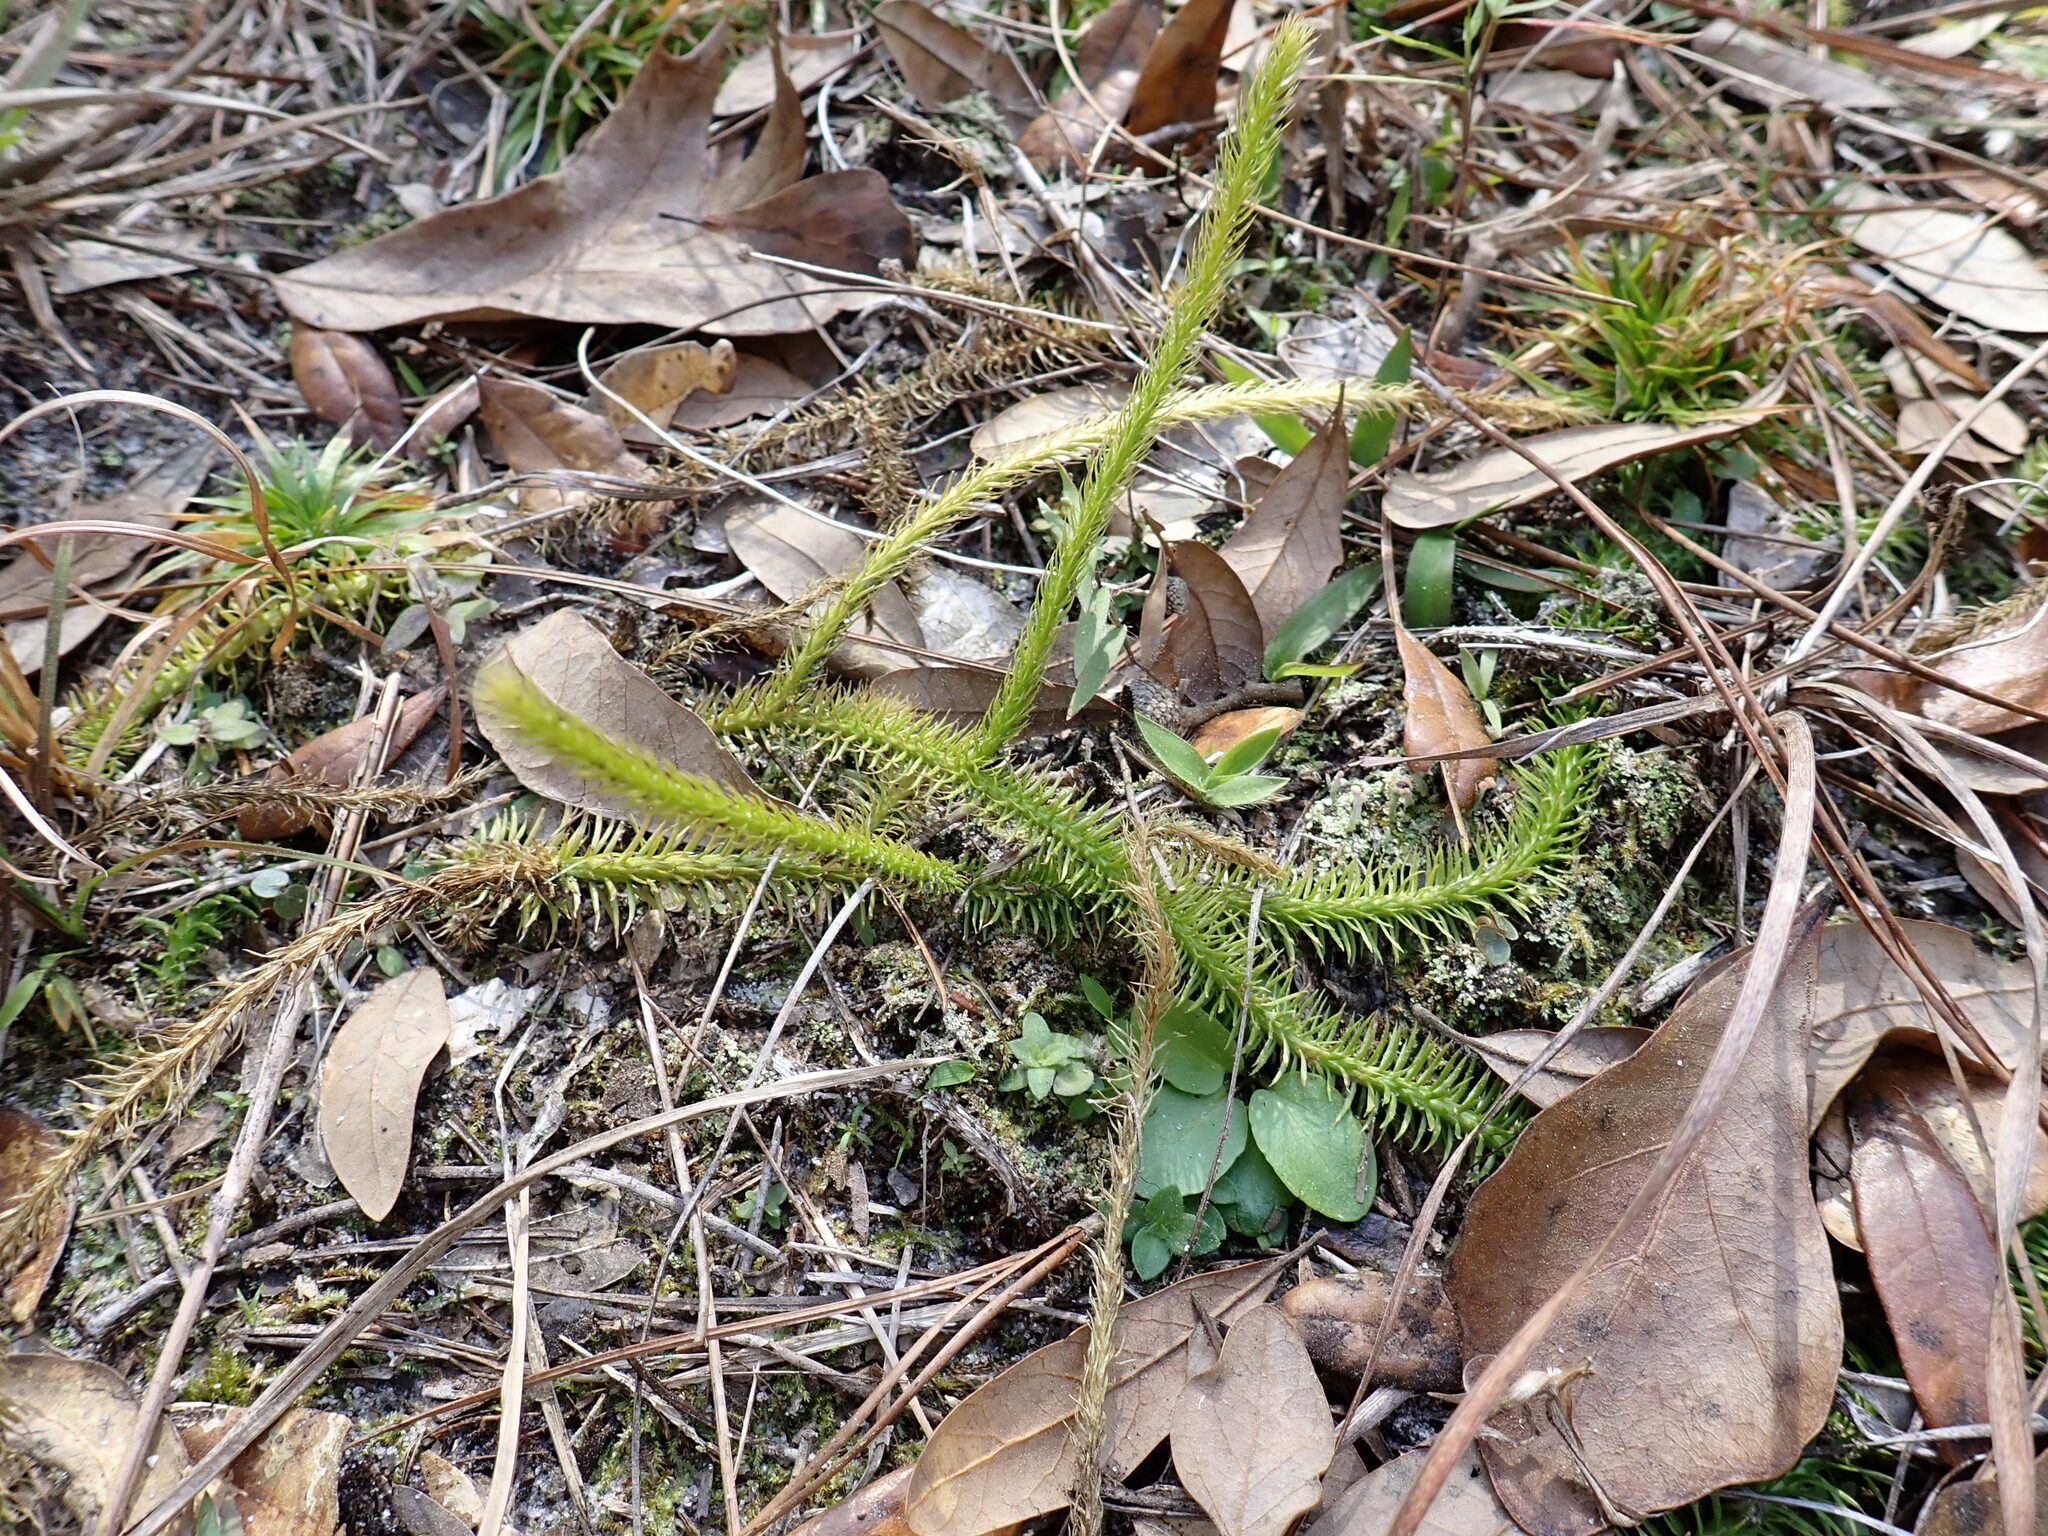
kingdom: Plantae
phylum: Tracheophyta
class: Lycopodiopsida
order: Lycopodiales
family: Lycopodiaceae
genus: Lycopodiella
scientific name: Lycopodiella appressa
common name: Appressed bog clubmoss
